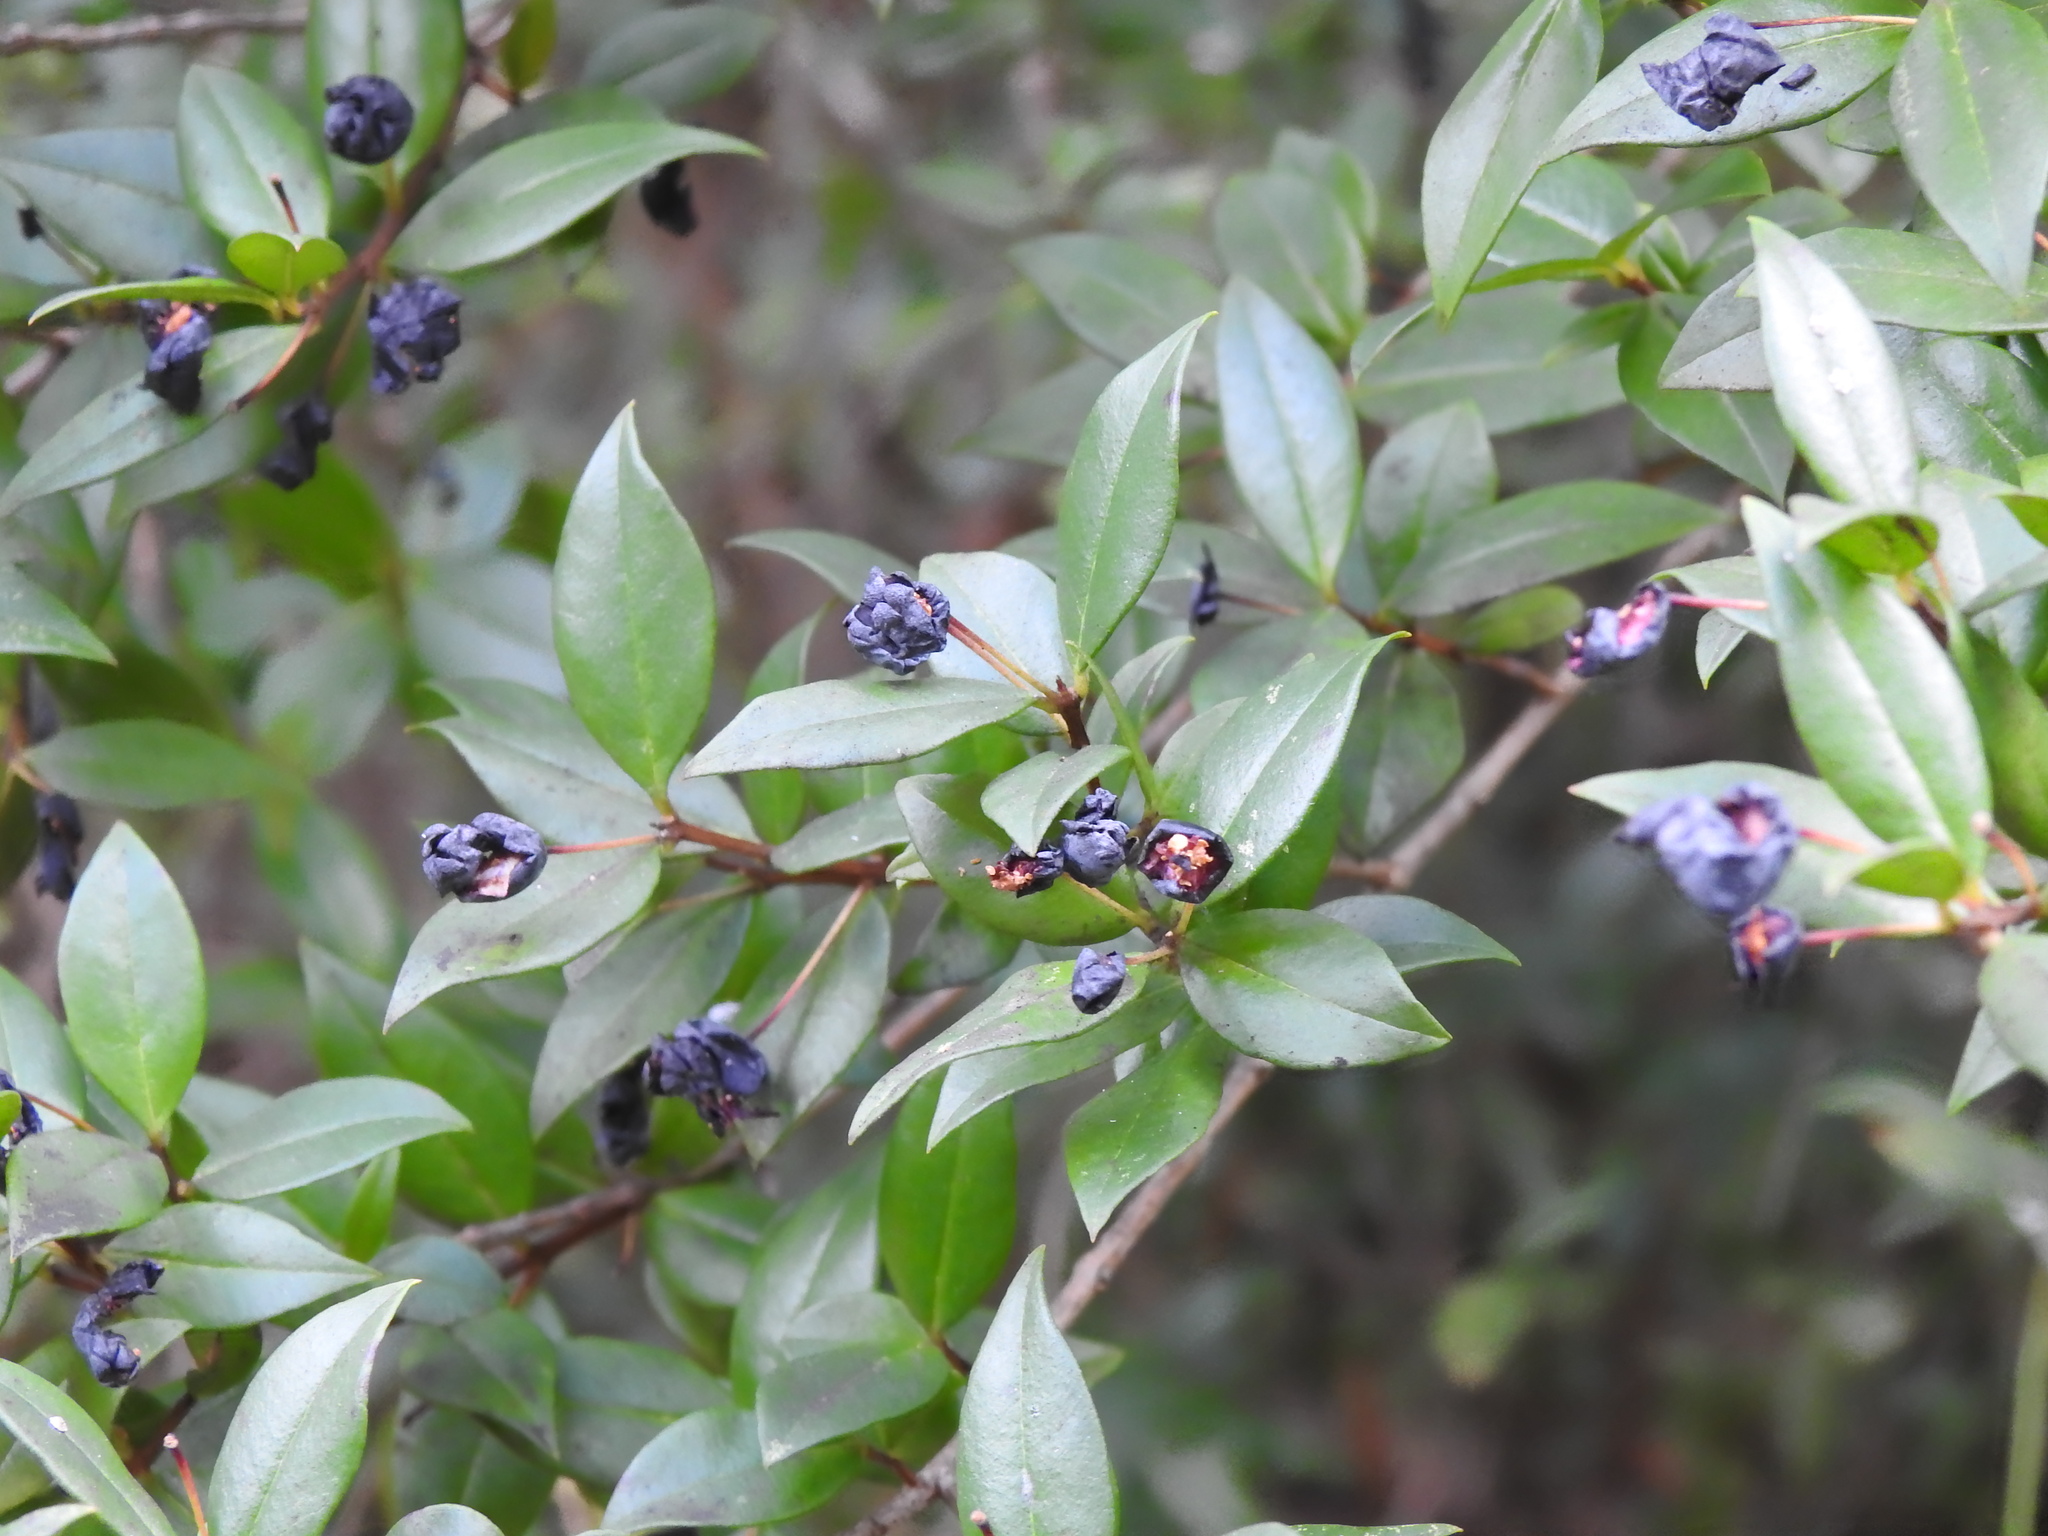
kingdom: Plantae
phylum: Tracheophyta
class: Magnoliopsida
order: Myrtales
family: Myrtaceae
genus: Myrtus
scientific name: Myrtus communis
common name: Myrtle
